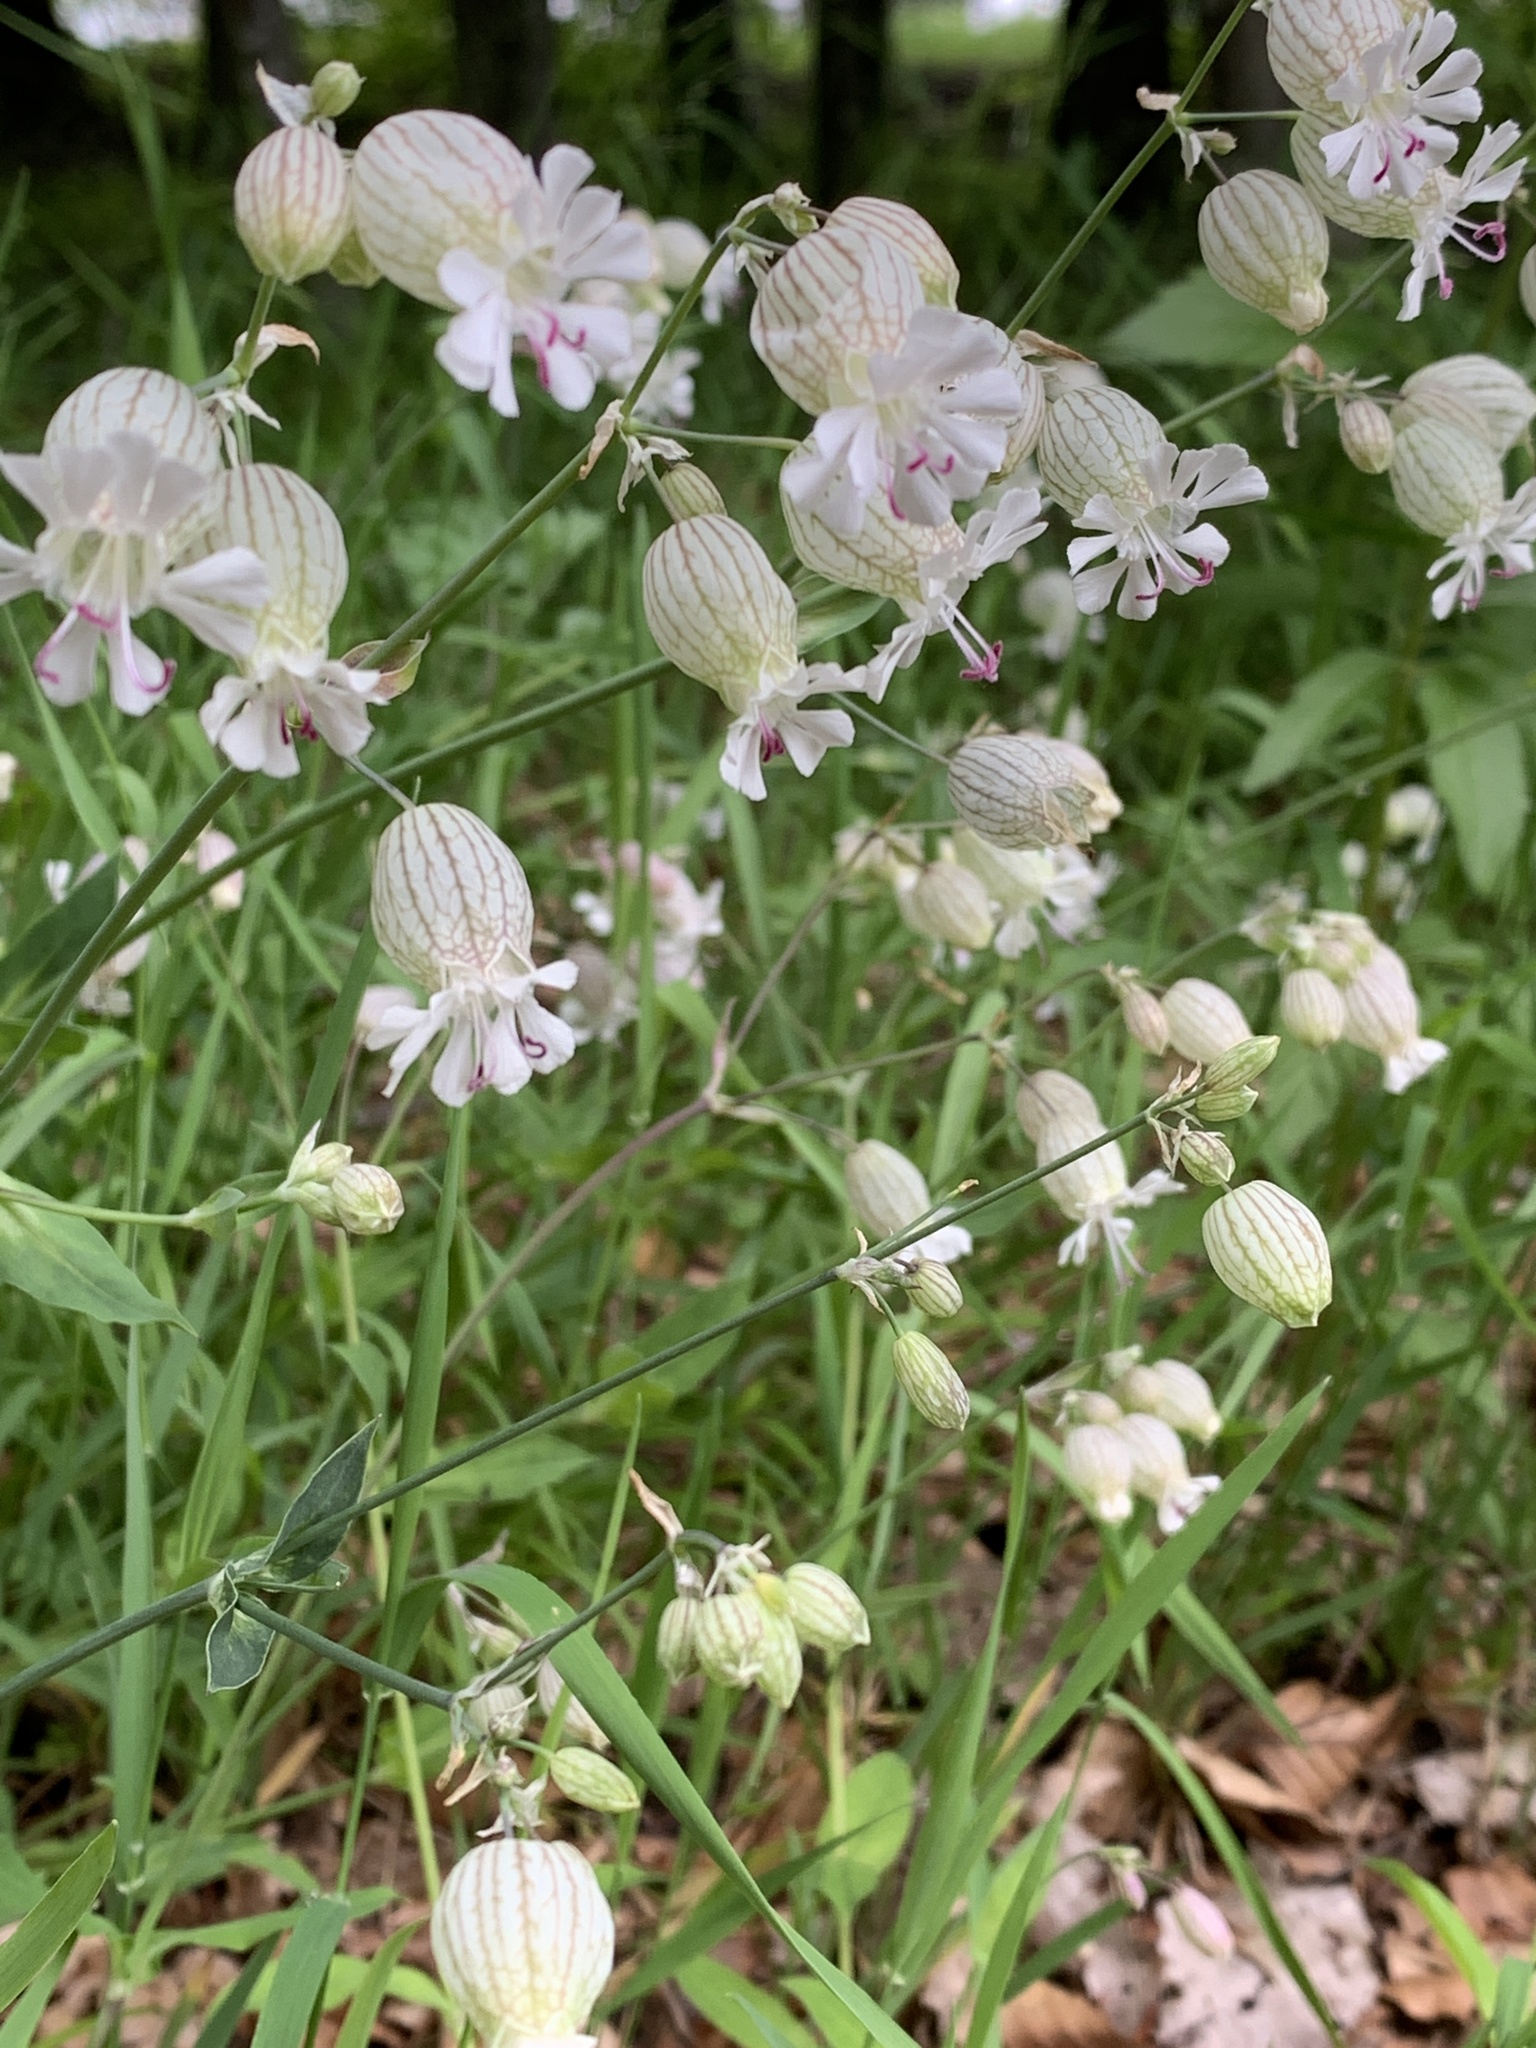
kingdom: Plantae
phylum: Tracheophyta
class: Magnoliopsida
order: Caryophyllales
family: Caryophyllaceae
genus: Silene
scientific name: Silene vulgaris
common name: Bladder campion
